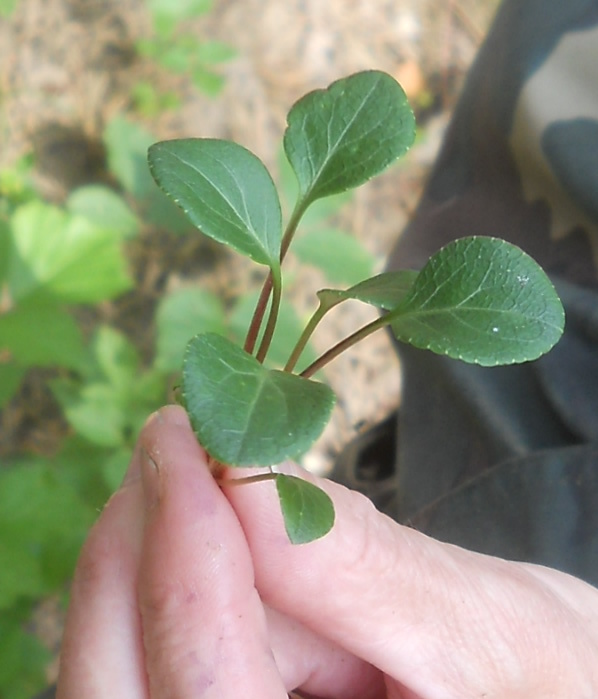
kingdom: Plantae
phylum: Tracheophyta
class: Magnoliopsida
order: Ericales
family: Ericaceae
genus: Pyrola
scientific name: Pyrola chlorantha
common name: Green wintergreen
